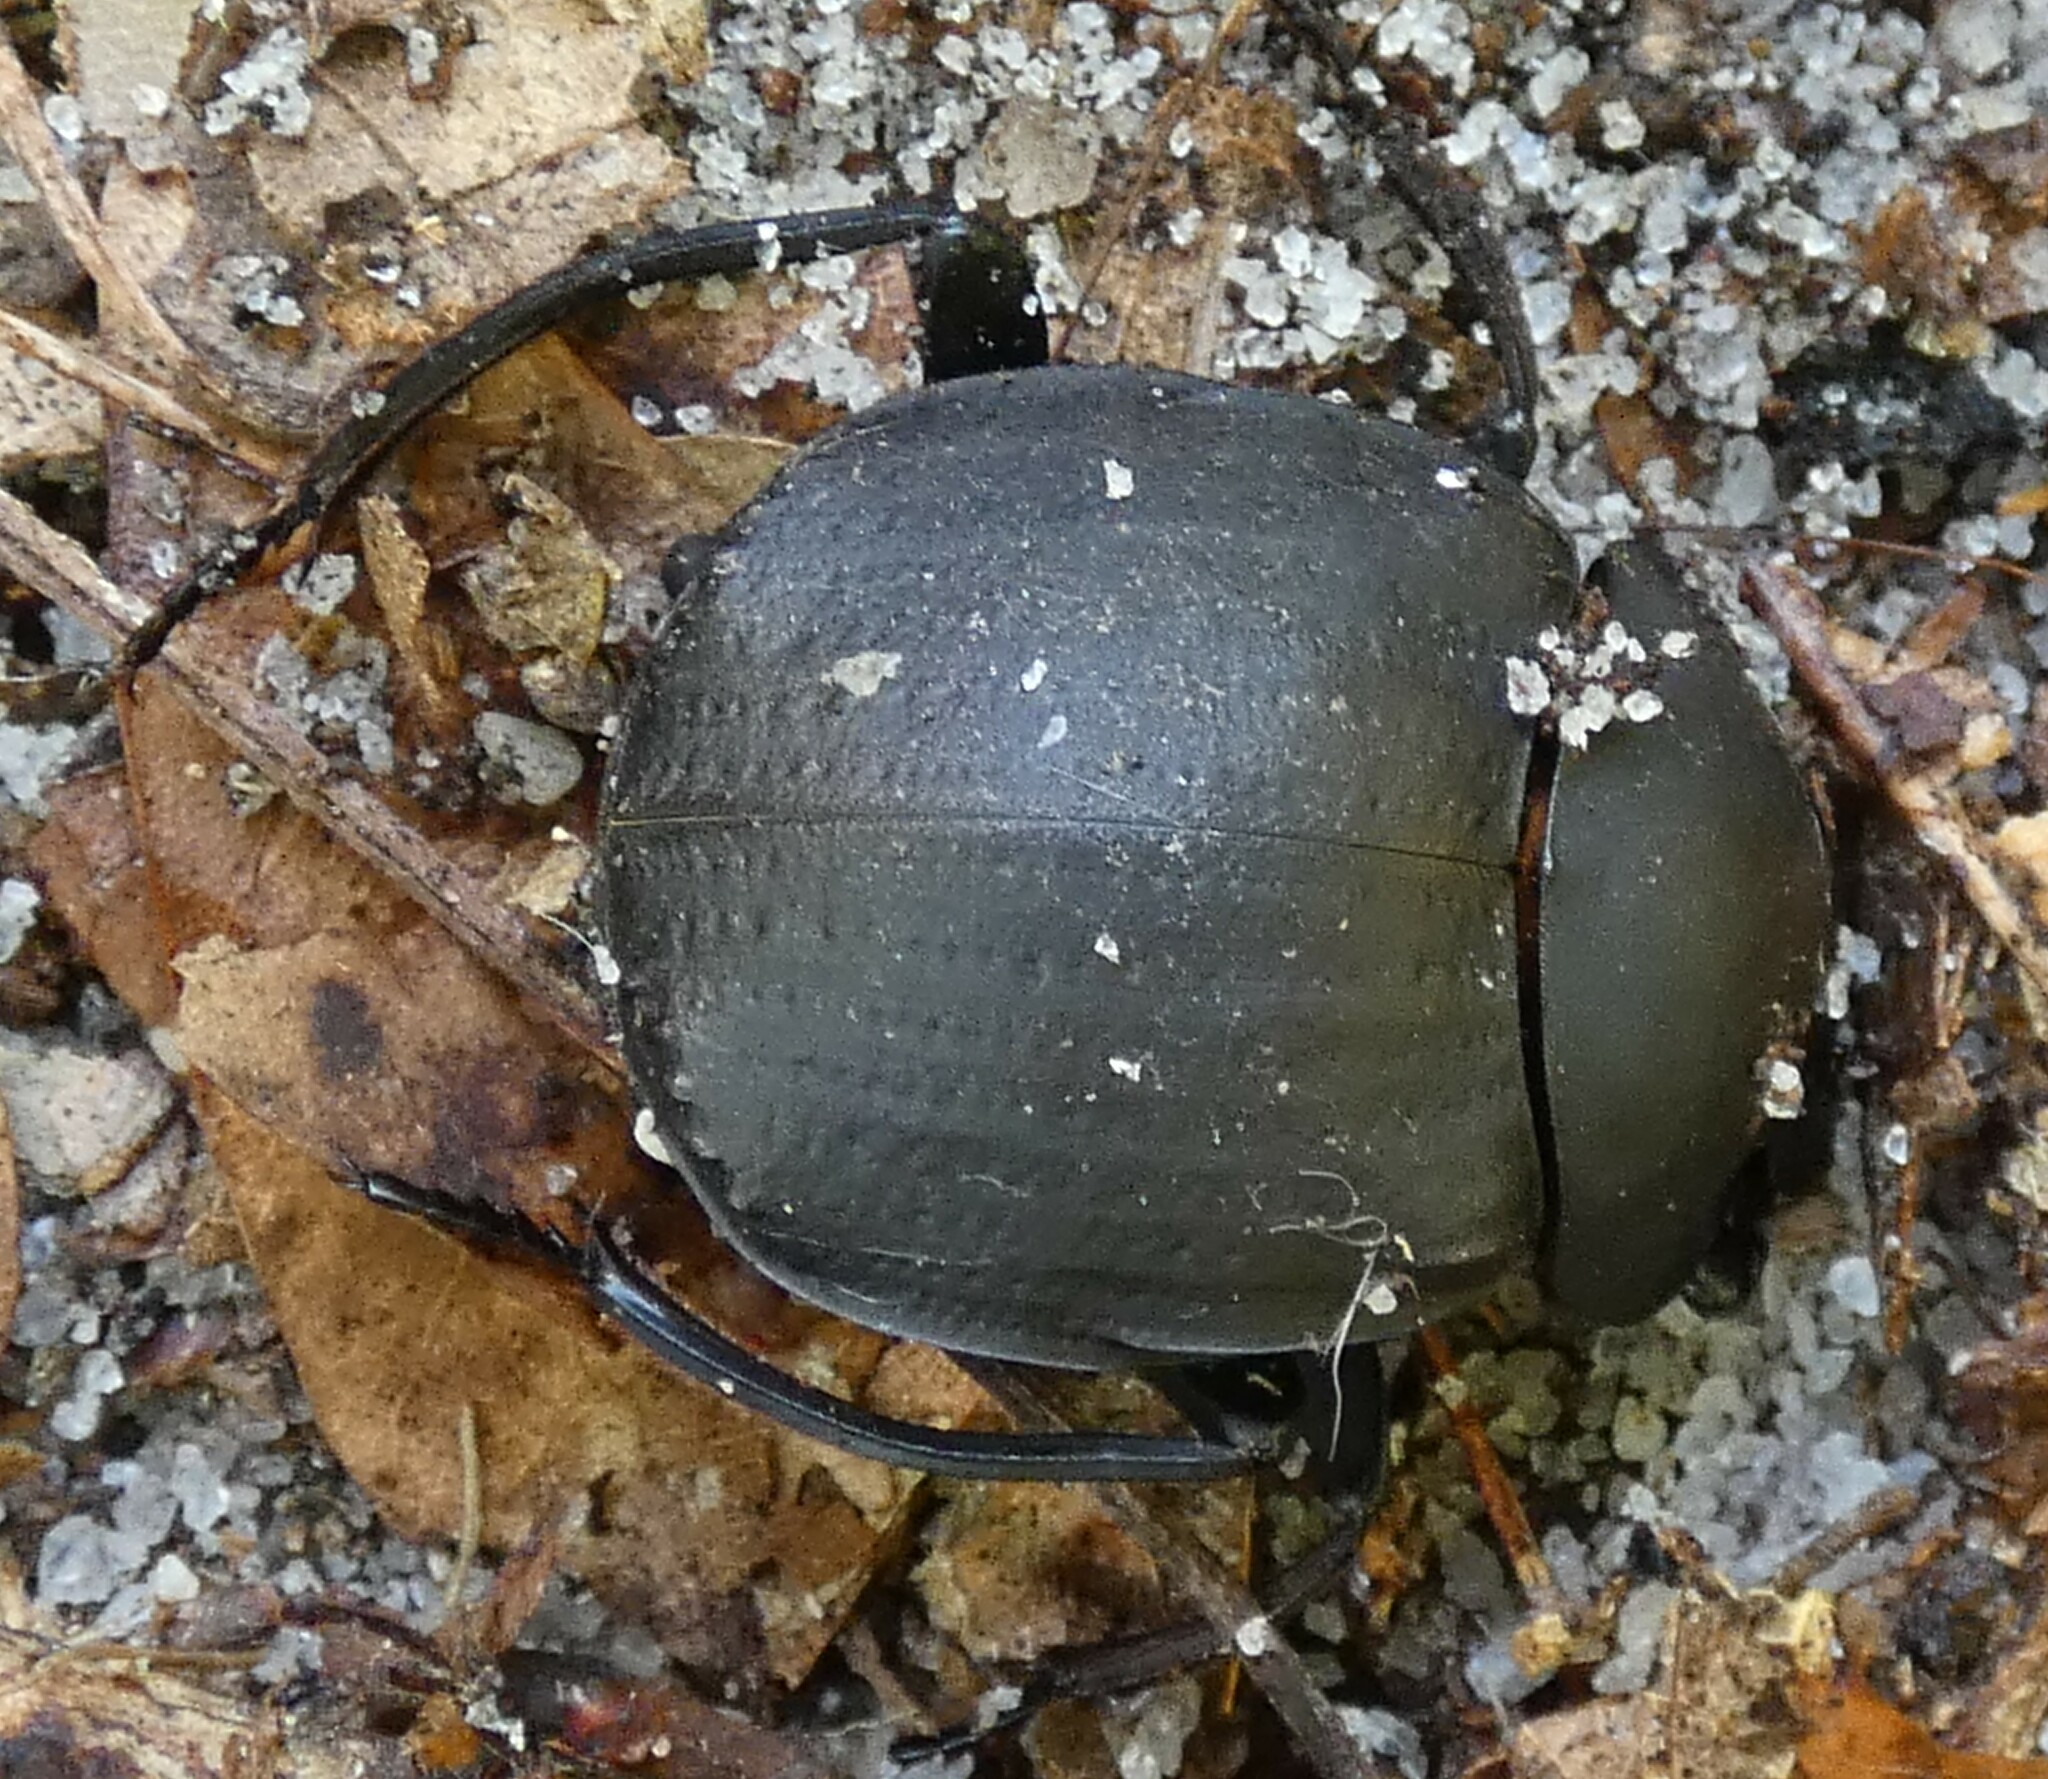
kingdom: Animalia
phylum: Arthropoda
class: Insecta
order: Coleoptera
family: Scarabaeidae
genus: Deltochilum
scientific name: Deltochilum gibbosum
